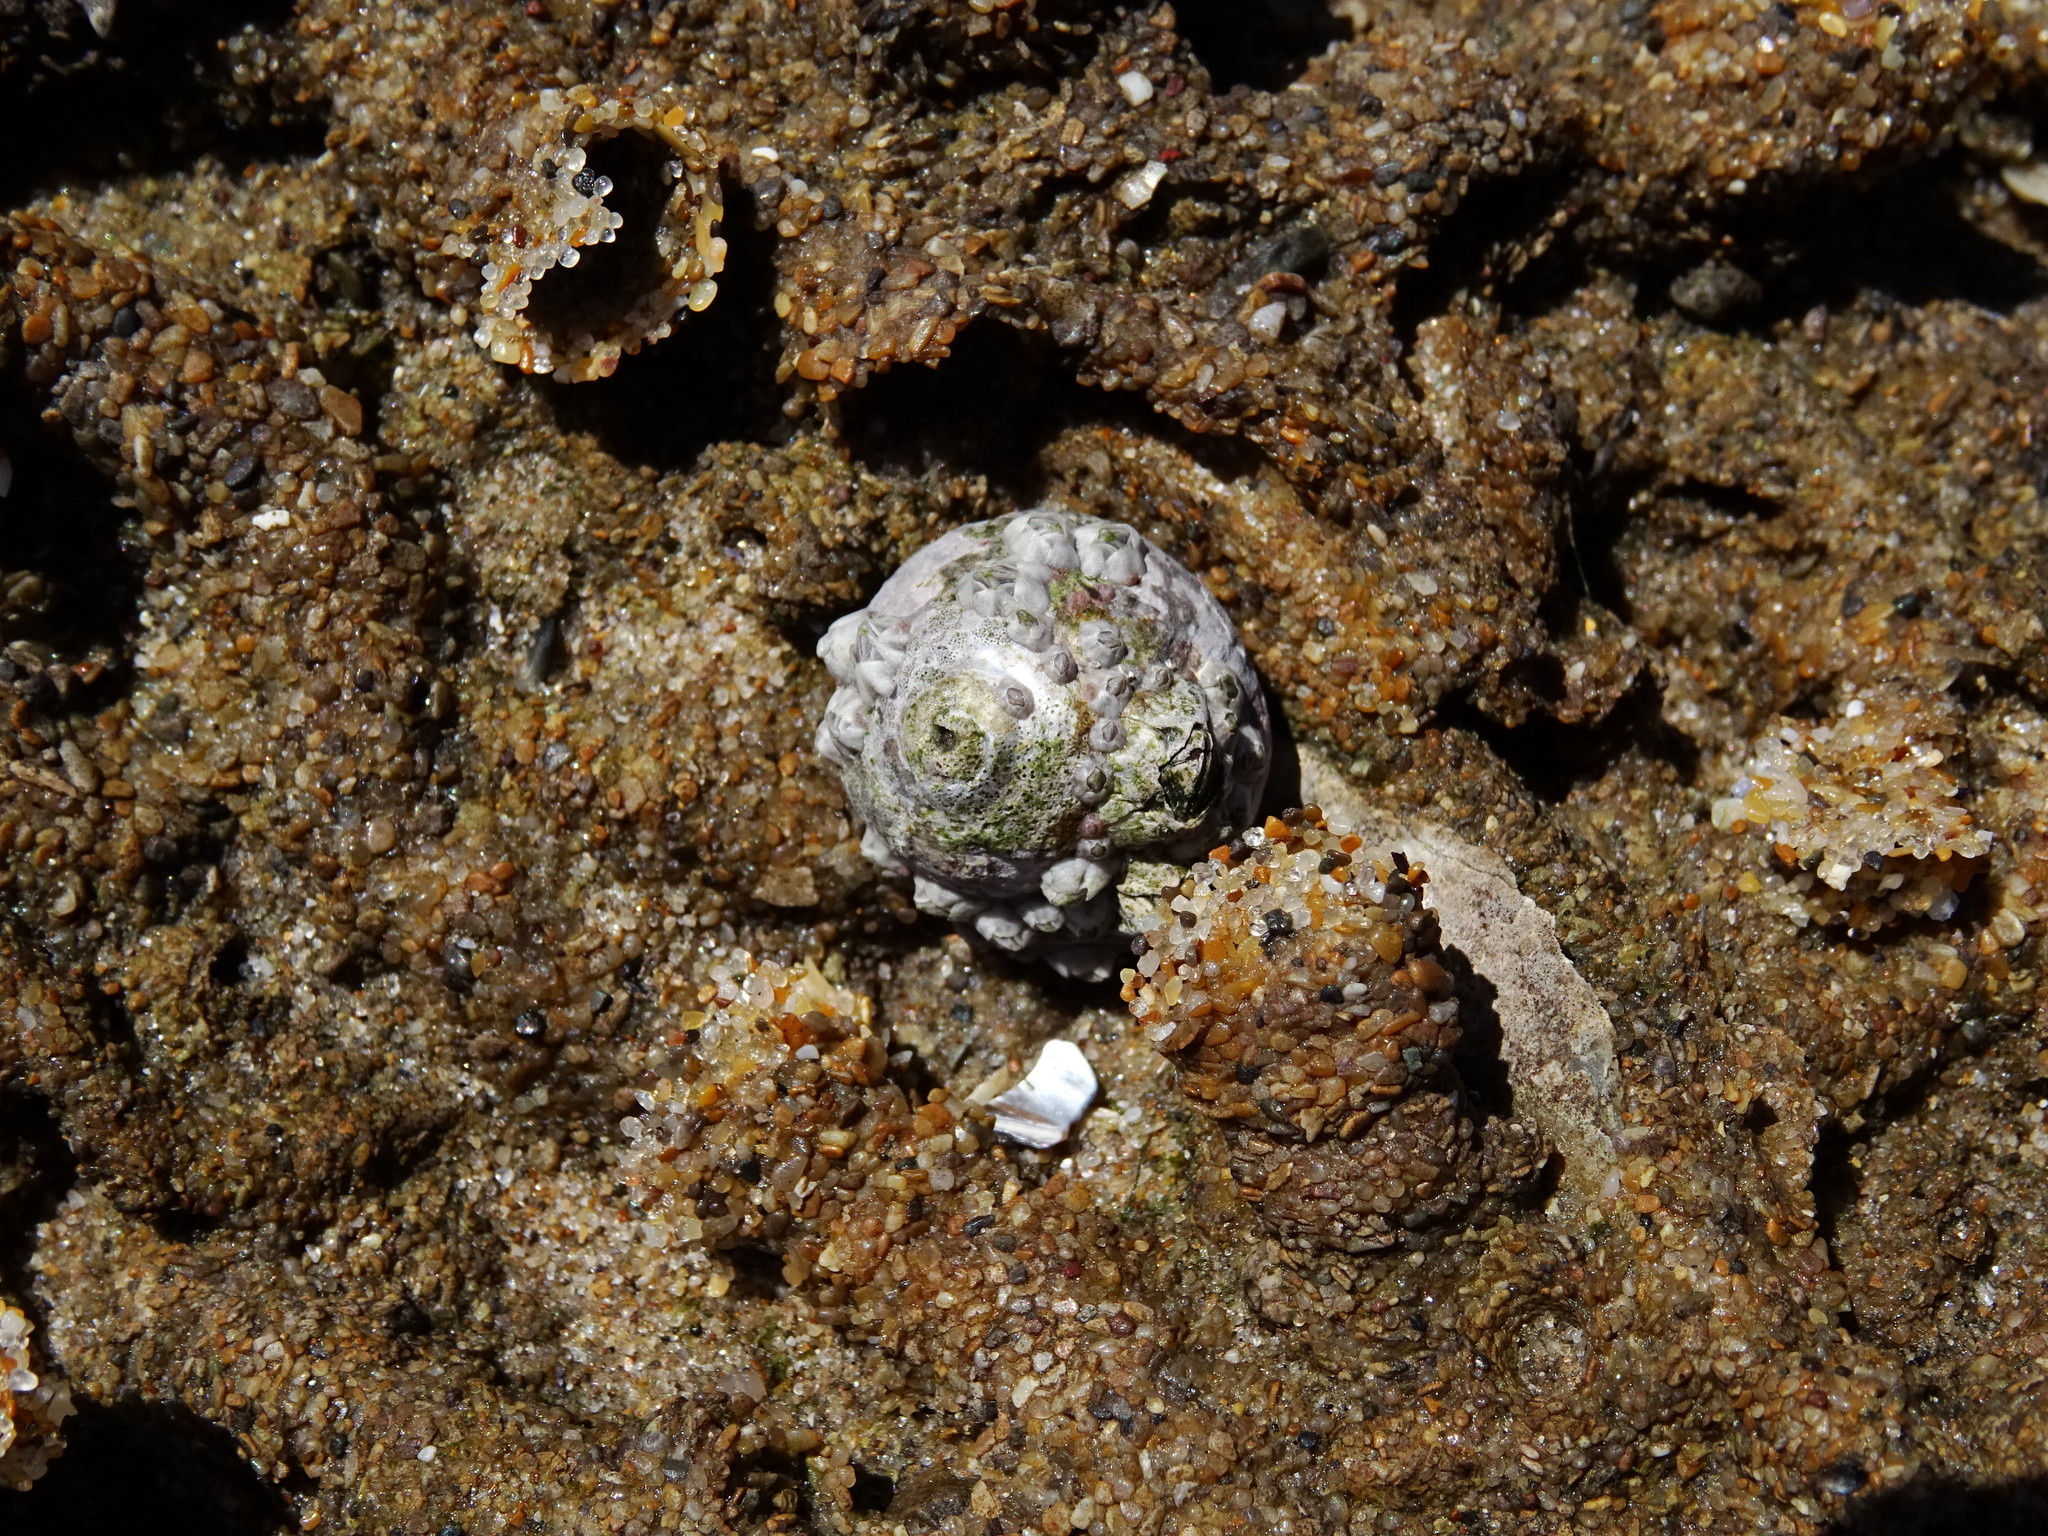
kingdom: Animalia
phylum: Mollusca
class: Gastropoda
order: Trochida
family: Trochidae
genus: Steromphala
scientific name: Steromphala umbilicalis
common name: Flat top shell
